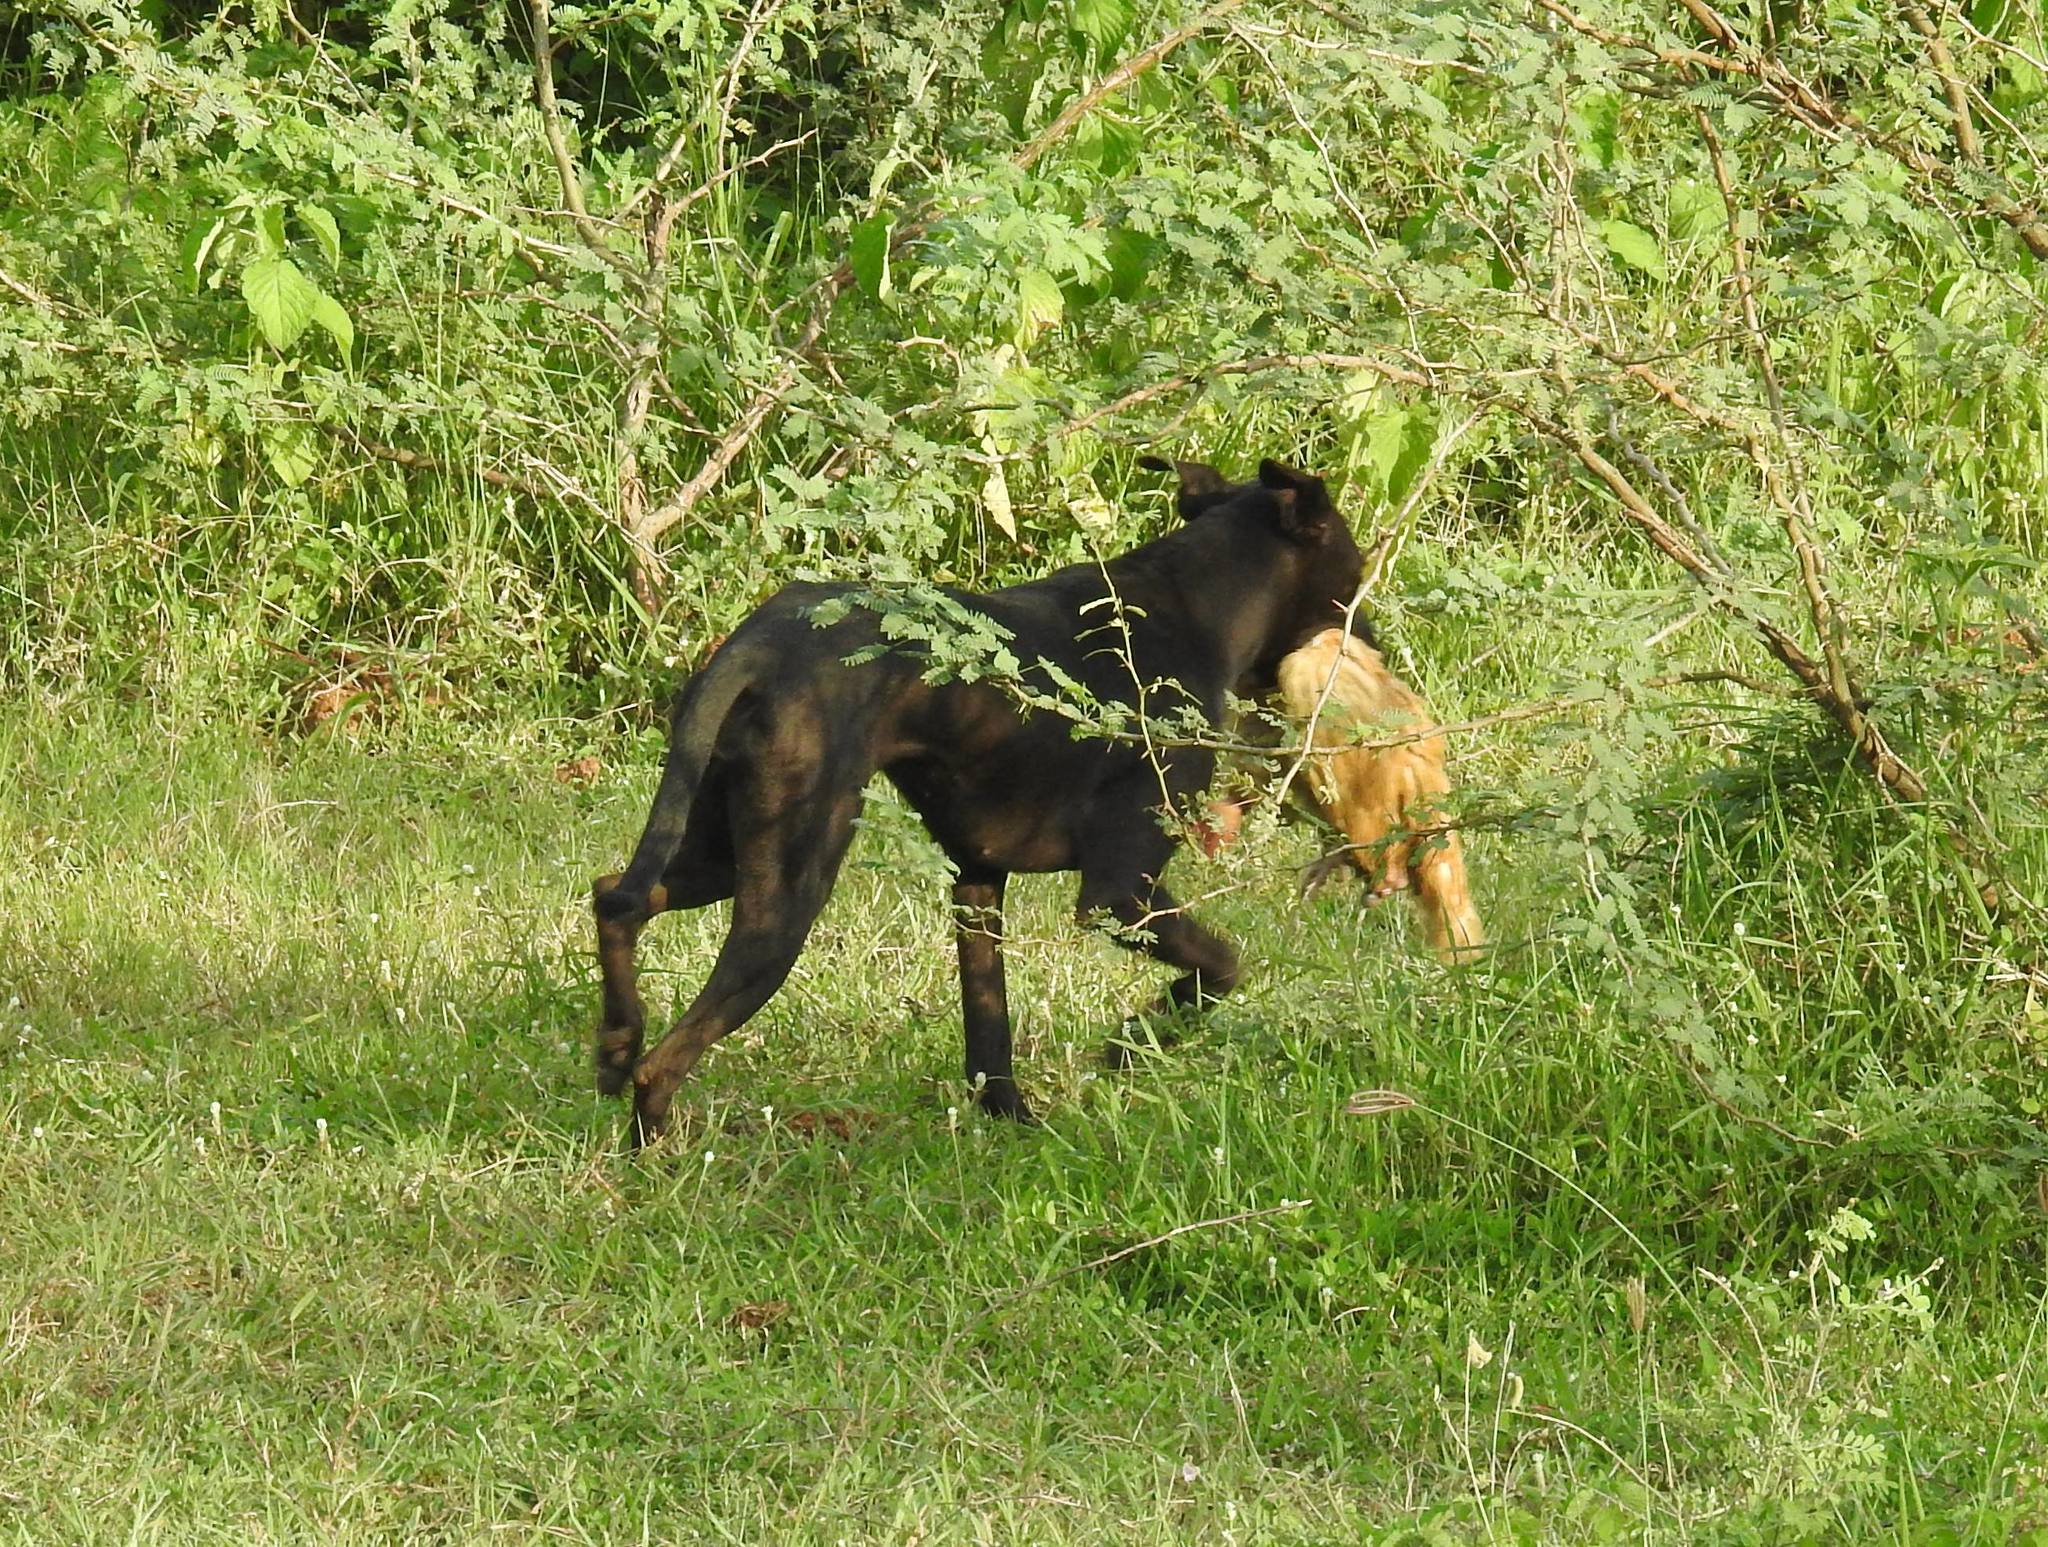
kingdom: Animalia
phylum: Chordata
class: Mammalia
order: Carnivora
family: Canidae
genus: Canis
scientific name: Canis lupus
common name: Gray wolf
